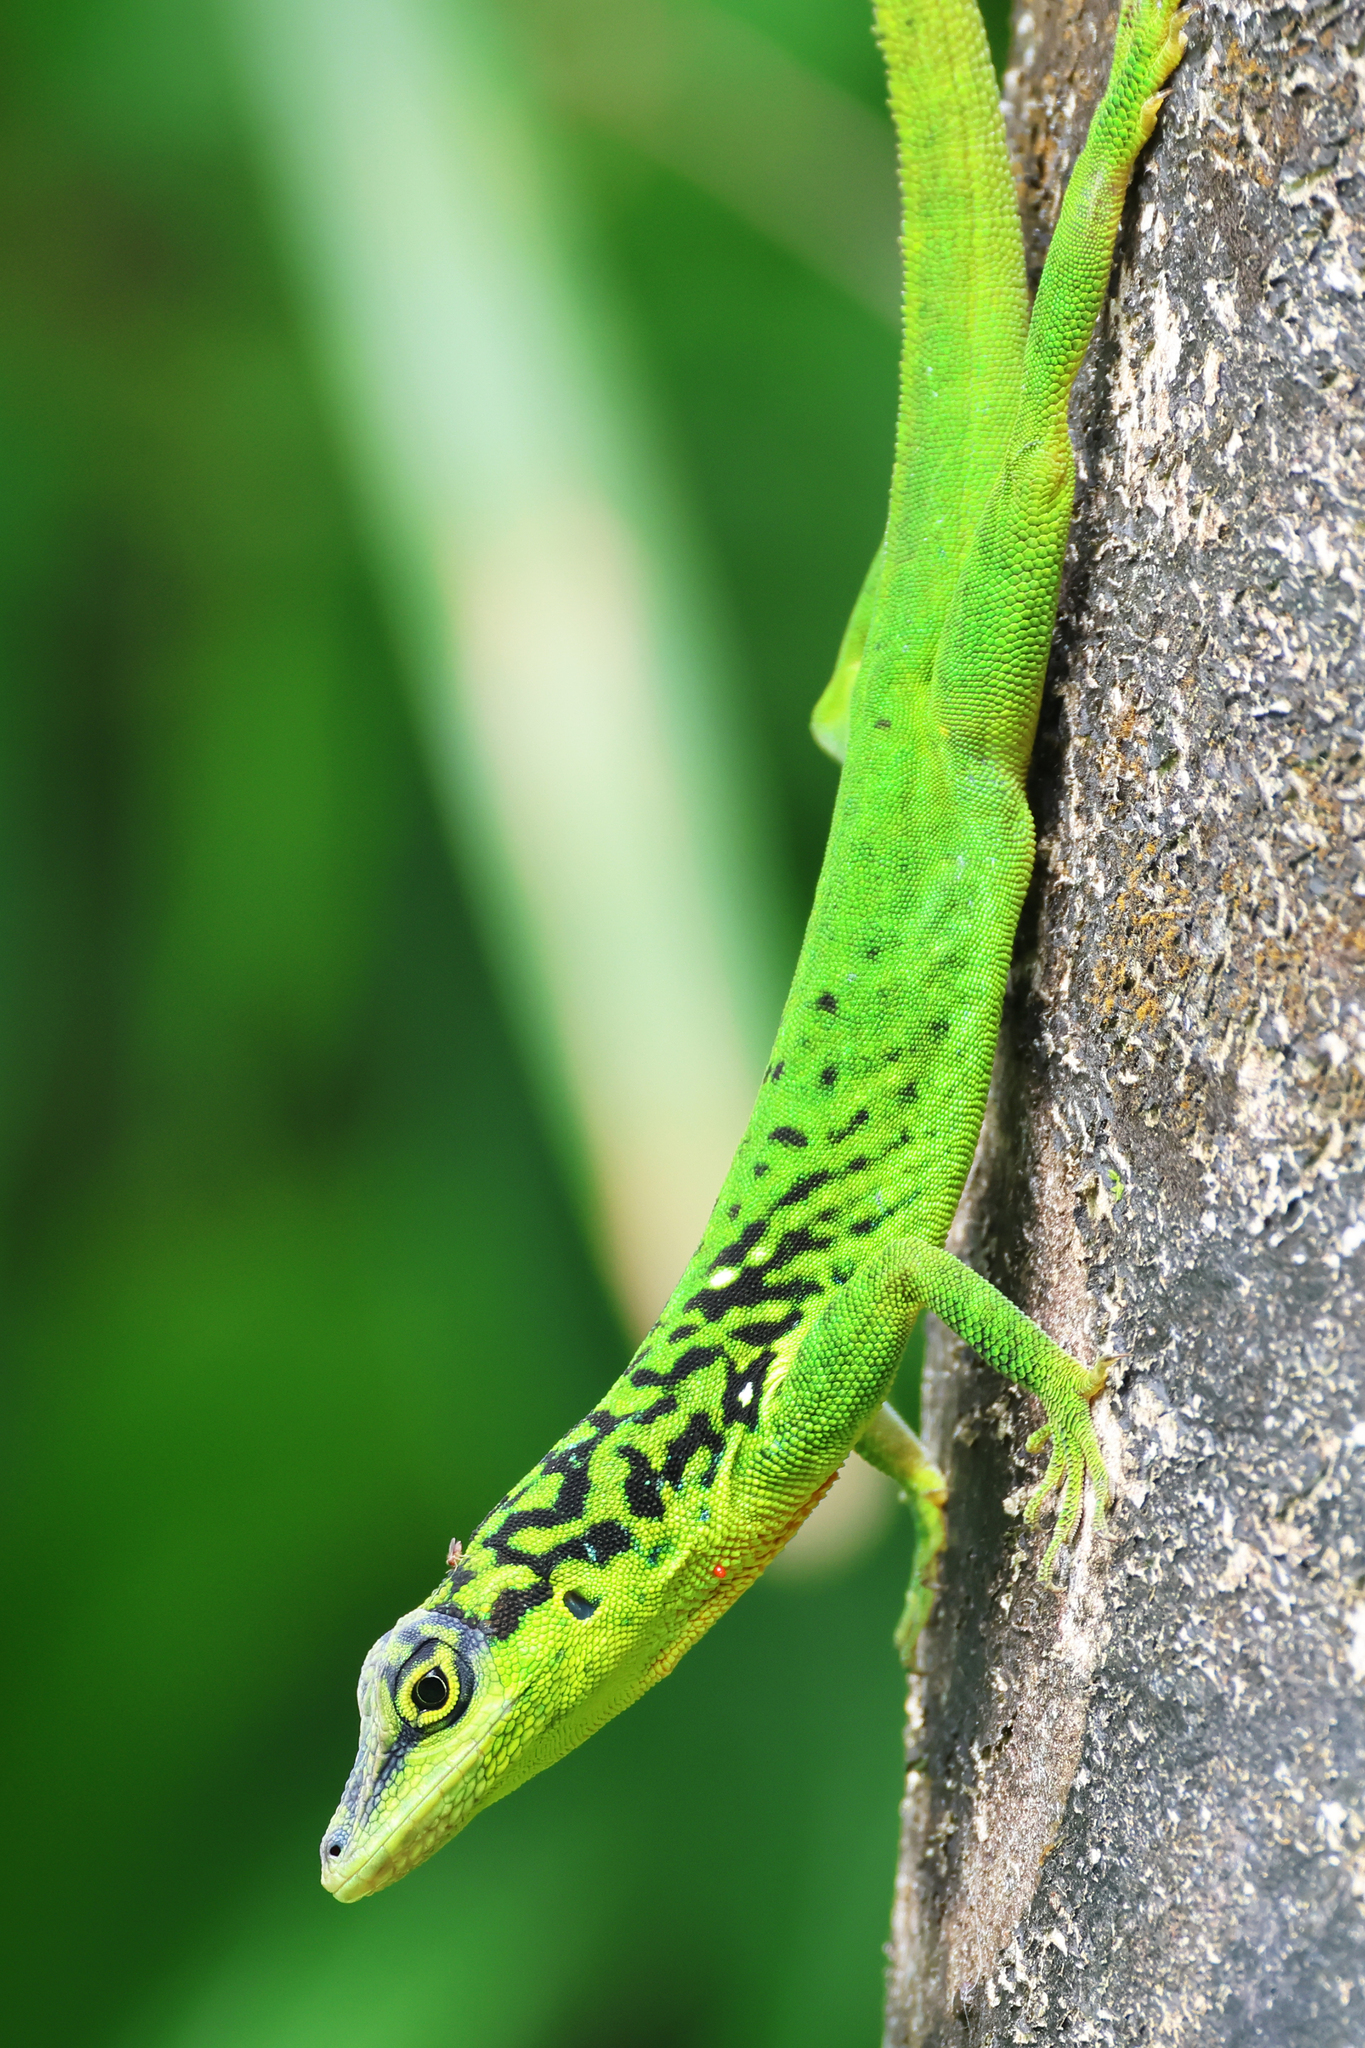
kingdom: Animalia
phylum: Chordata
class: Squamata
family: Dactyloidae
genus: Anolis
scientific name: Anolis roquet
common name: Martinique anole
